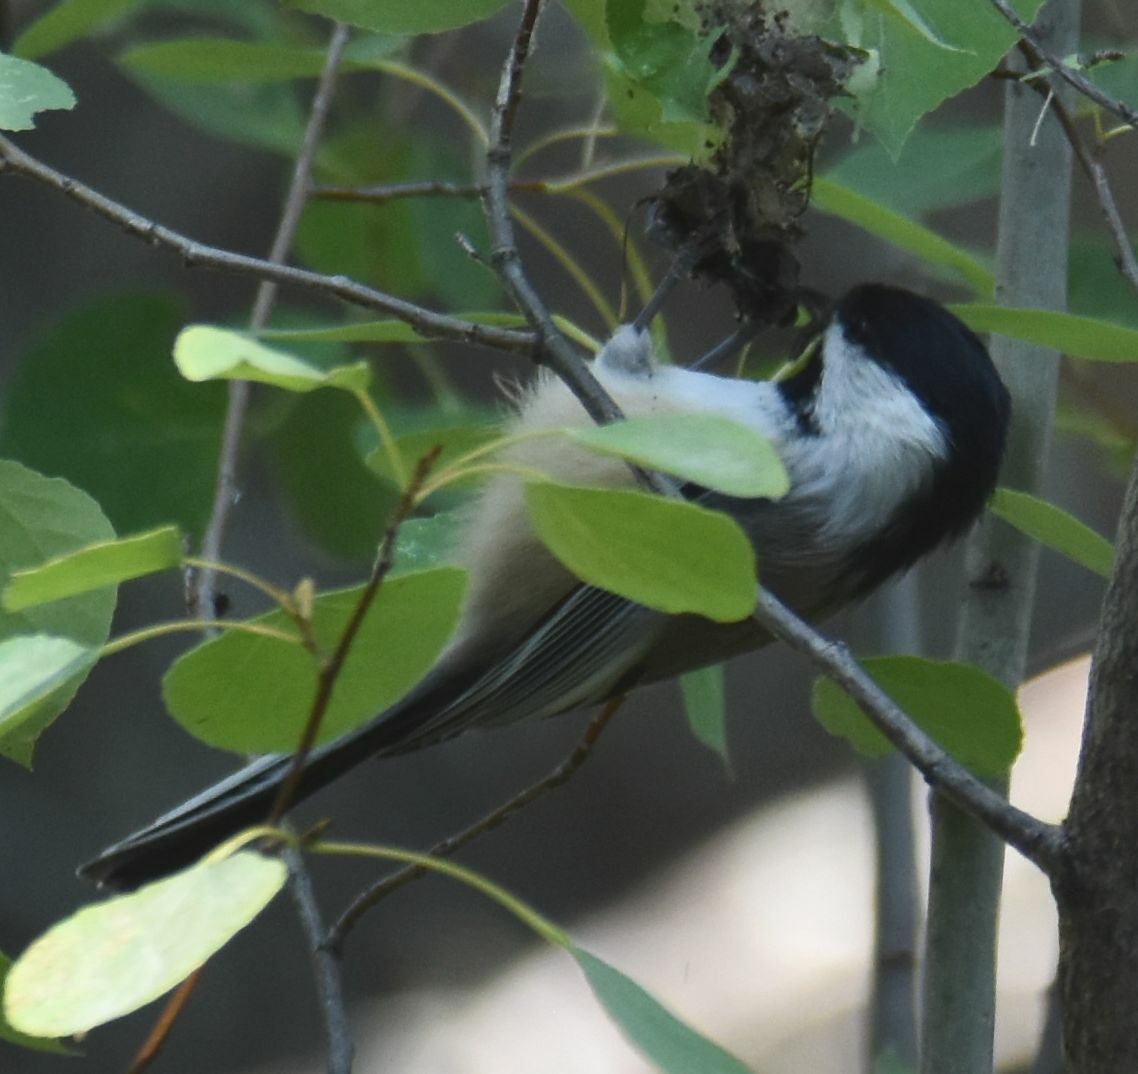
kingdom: Animalia
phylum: Chordata
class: Aves
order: Passeriformes
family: Paridae
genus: Poecile
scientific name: Poecile atricapillus
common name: Black-capped chickadee
